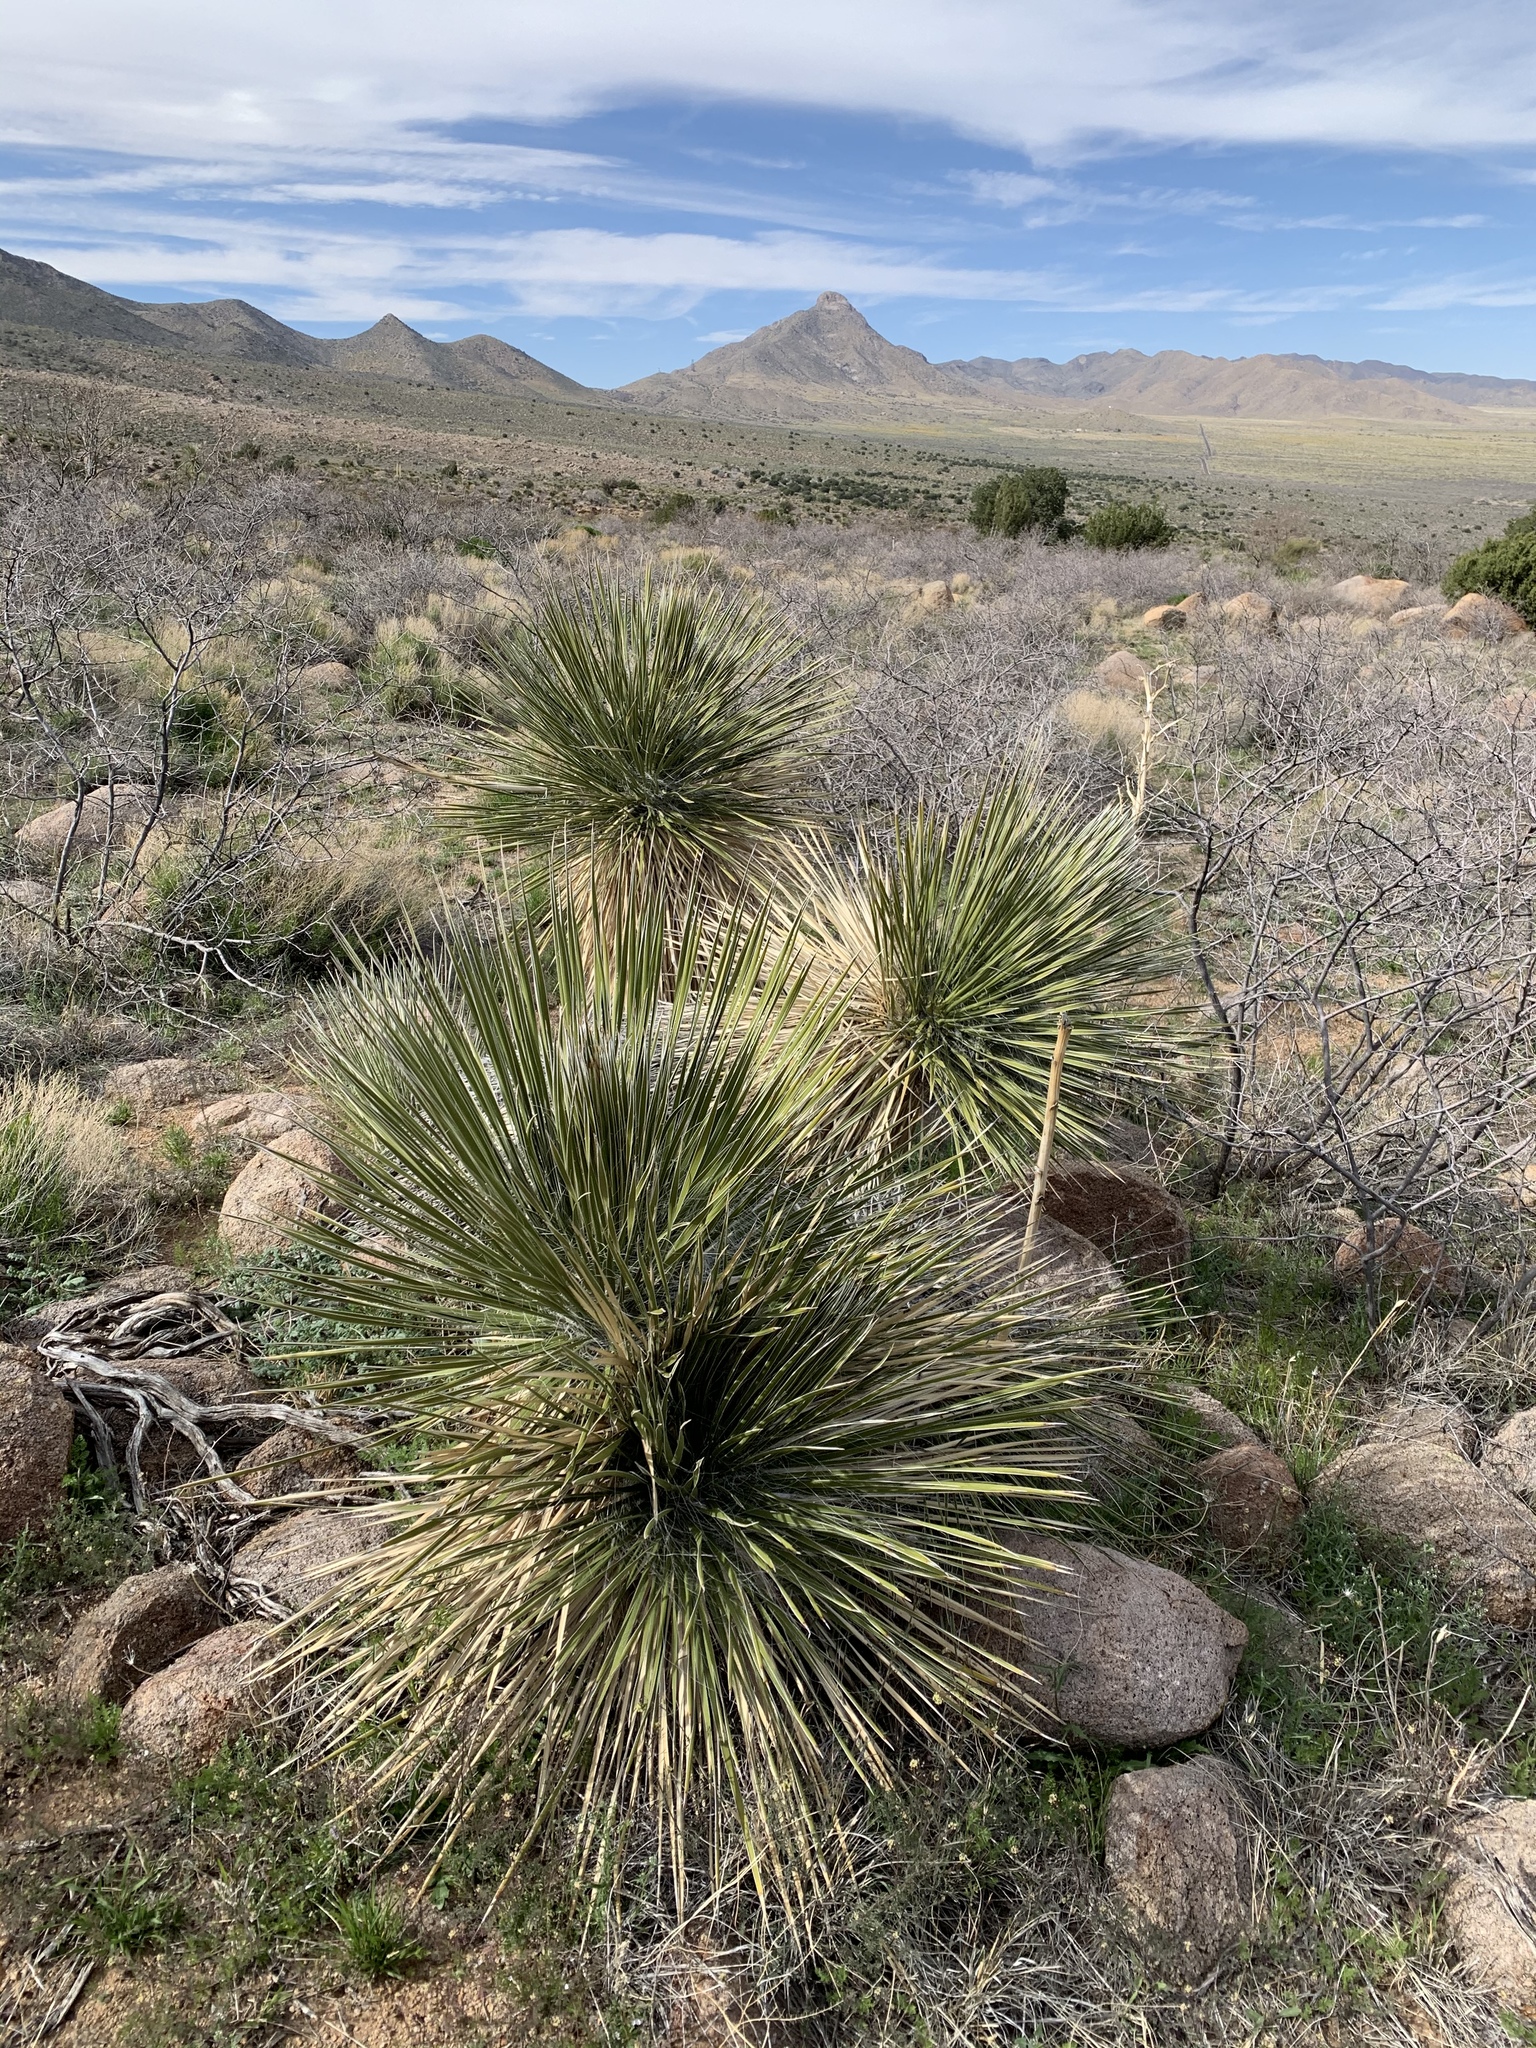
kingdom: Plantae
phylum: Tracheophyta
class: Liliopsida
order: Asparagales
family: Asparagaceae
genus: Yucca
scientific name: Yucca elata
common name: Palmella
